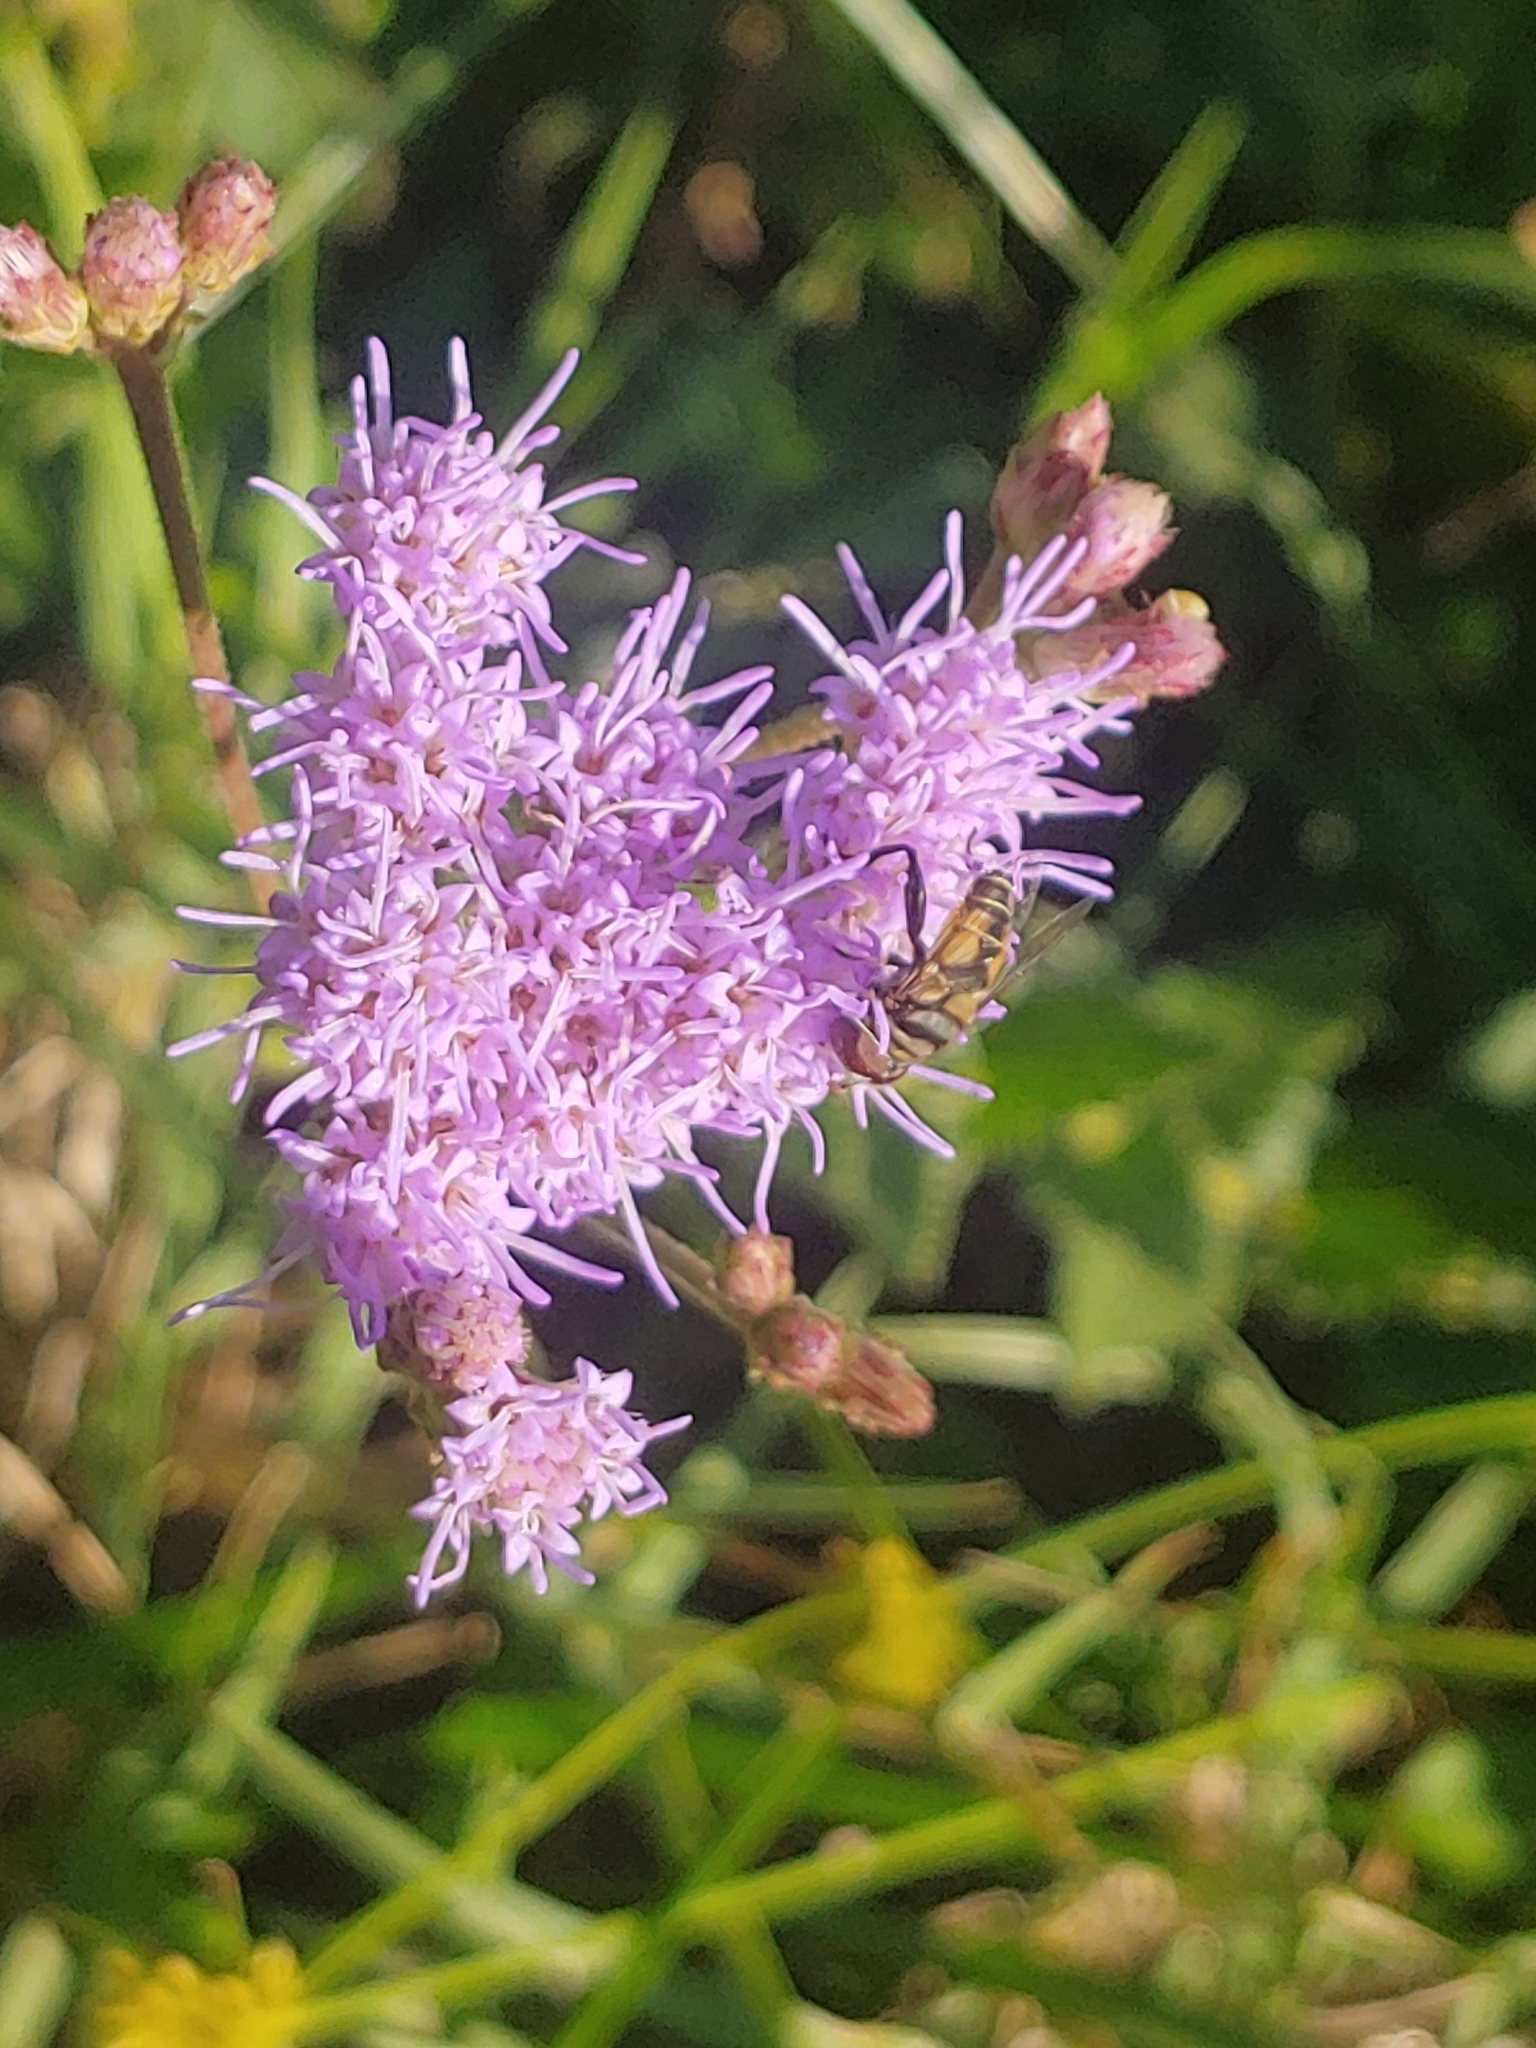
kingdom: Animalia
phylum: Arthropoda
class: Insecta
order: Diptera
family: Syrphidae
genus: Palpada
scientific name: Palpada
